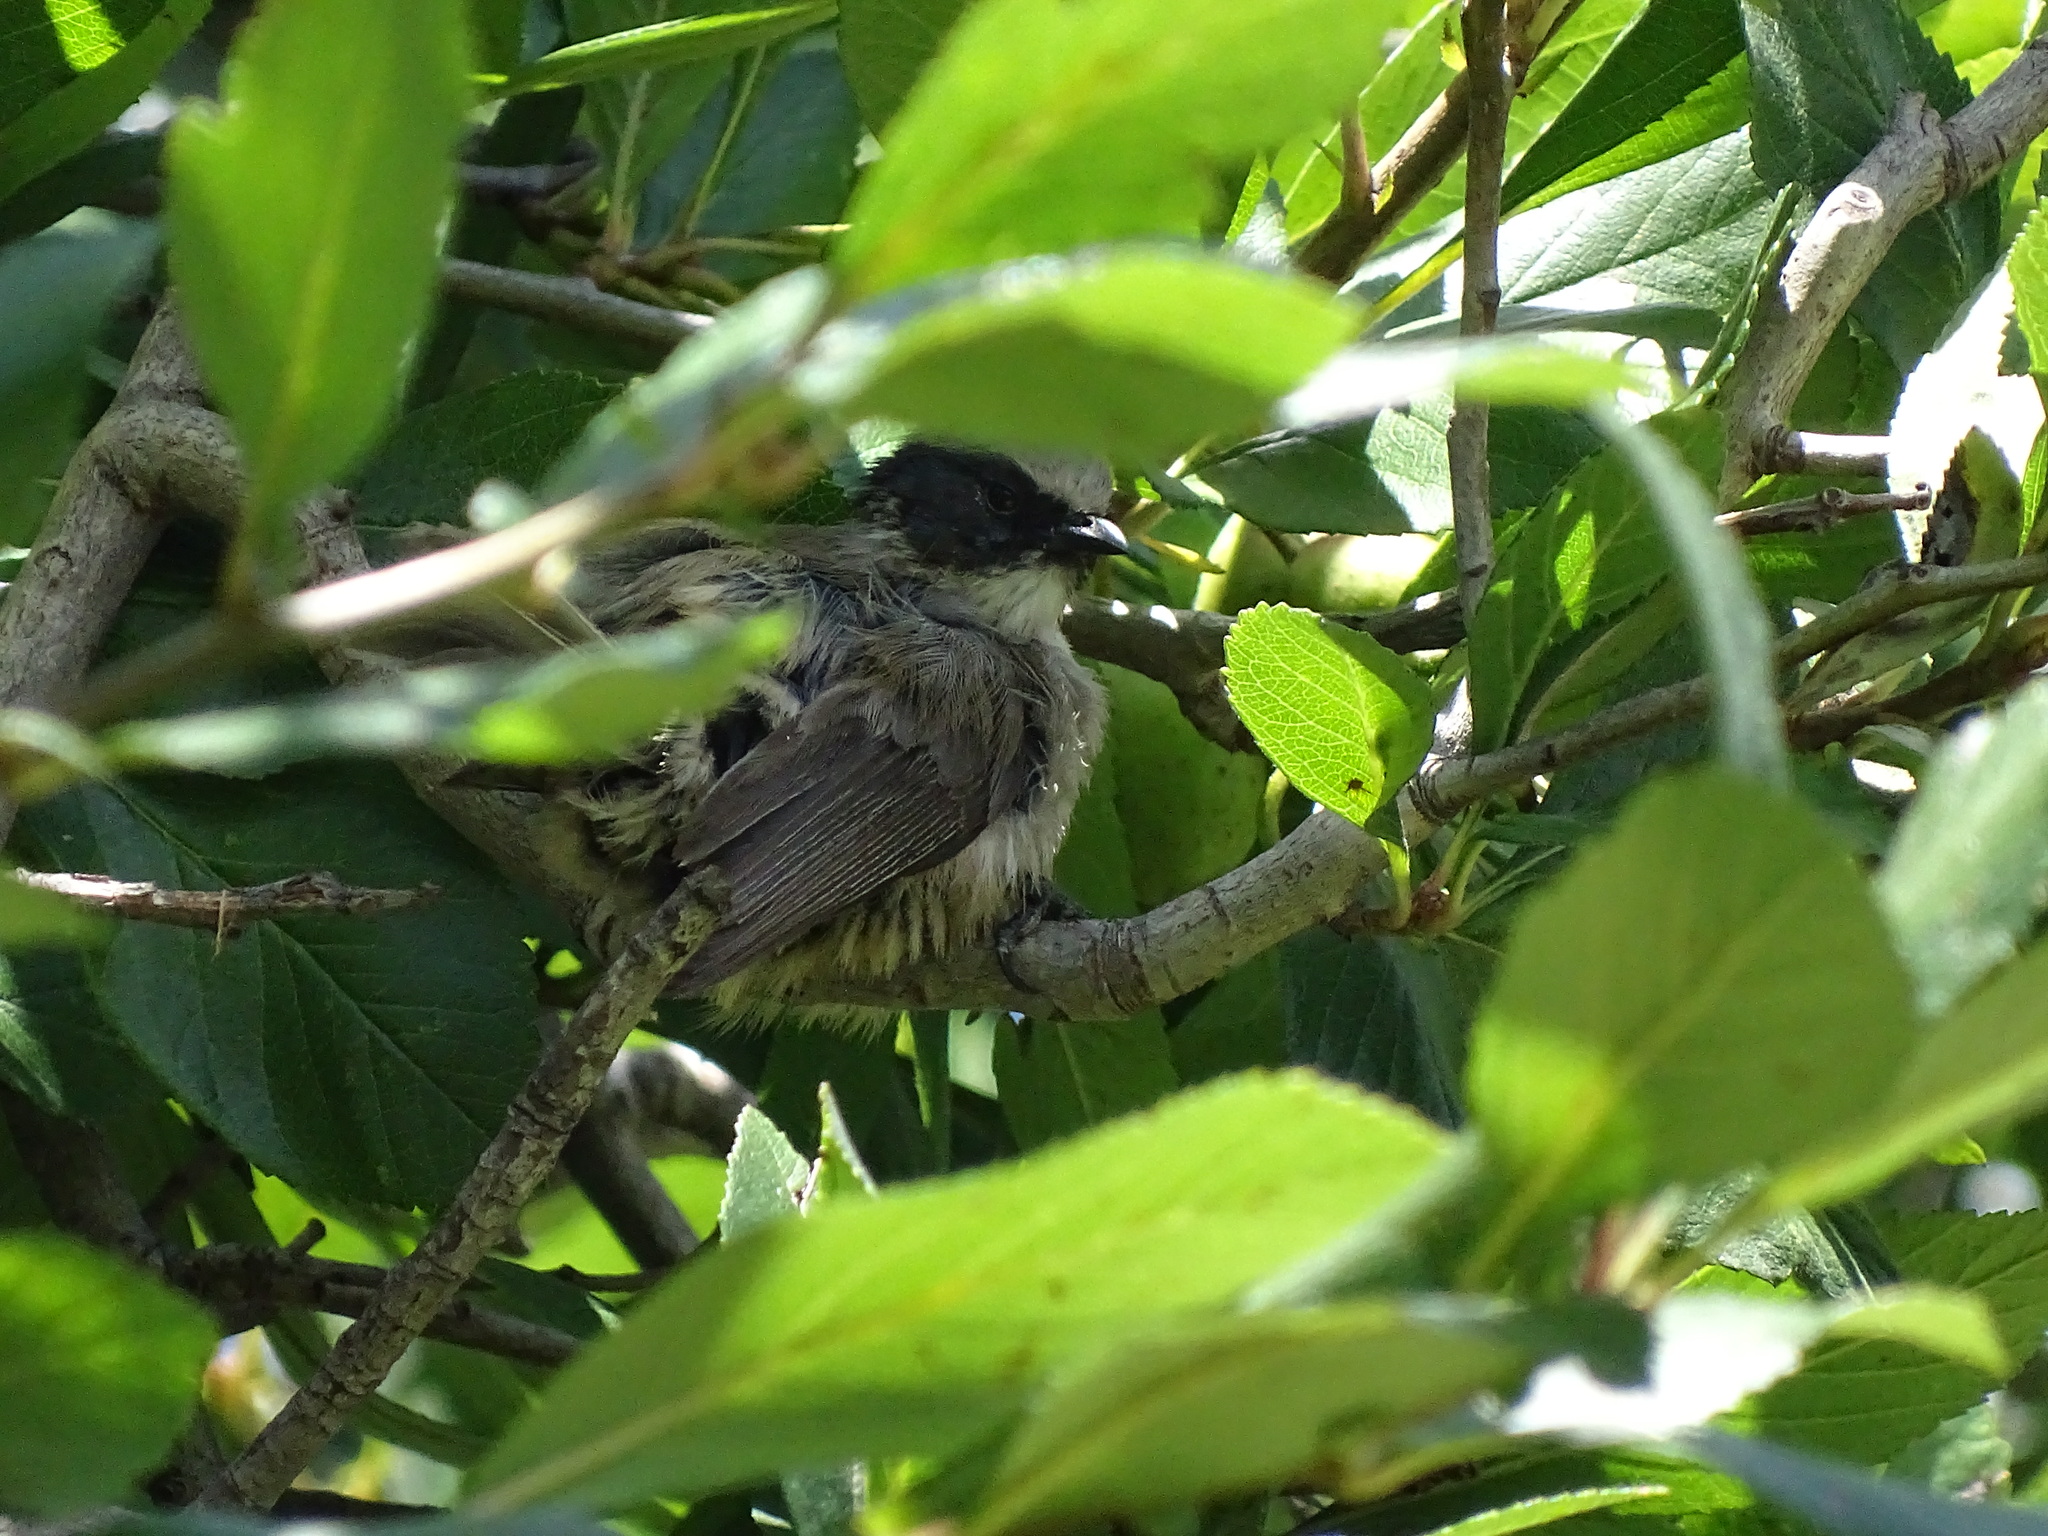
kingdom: Animalia
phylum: Chordata
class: Aves
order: Passeriformes
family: Aegithalidae
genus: Psaltriparus
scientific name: Psaltriparus minimus
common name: American bushtit
